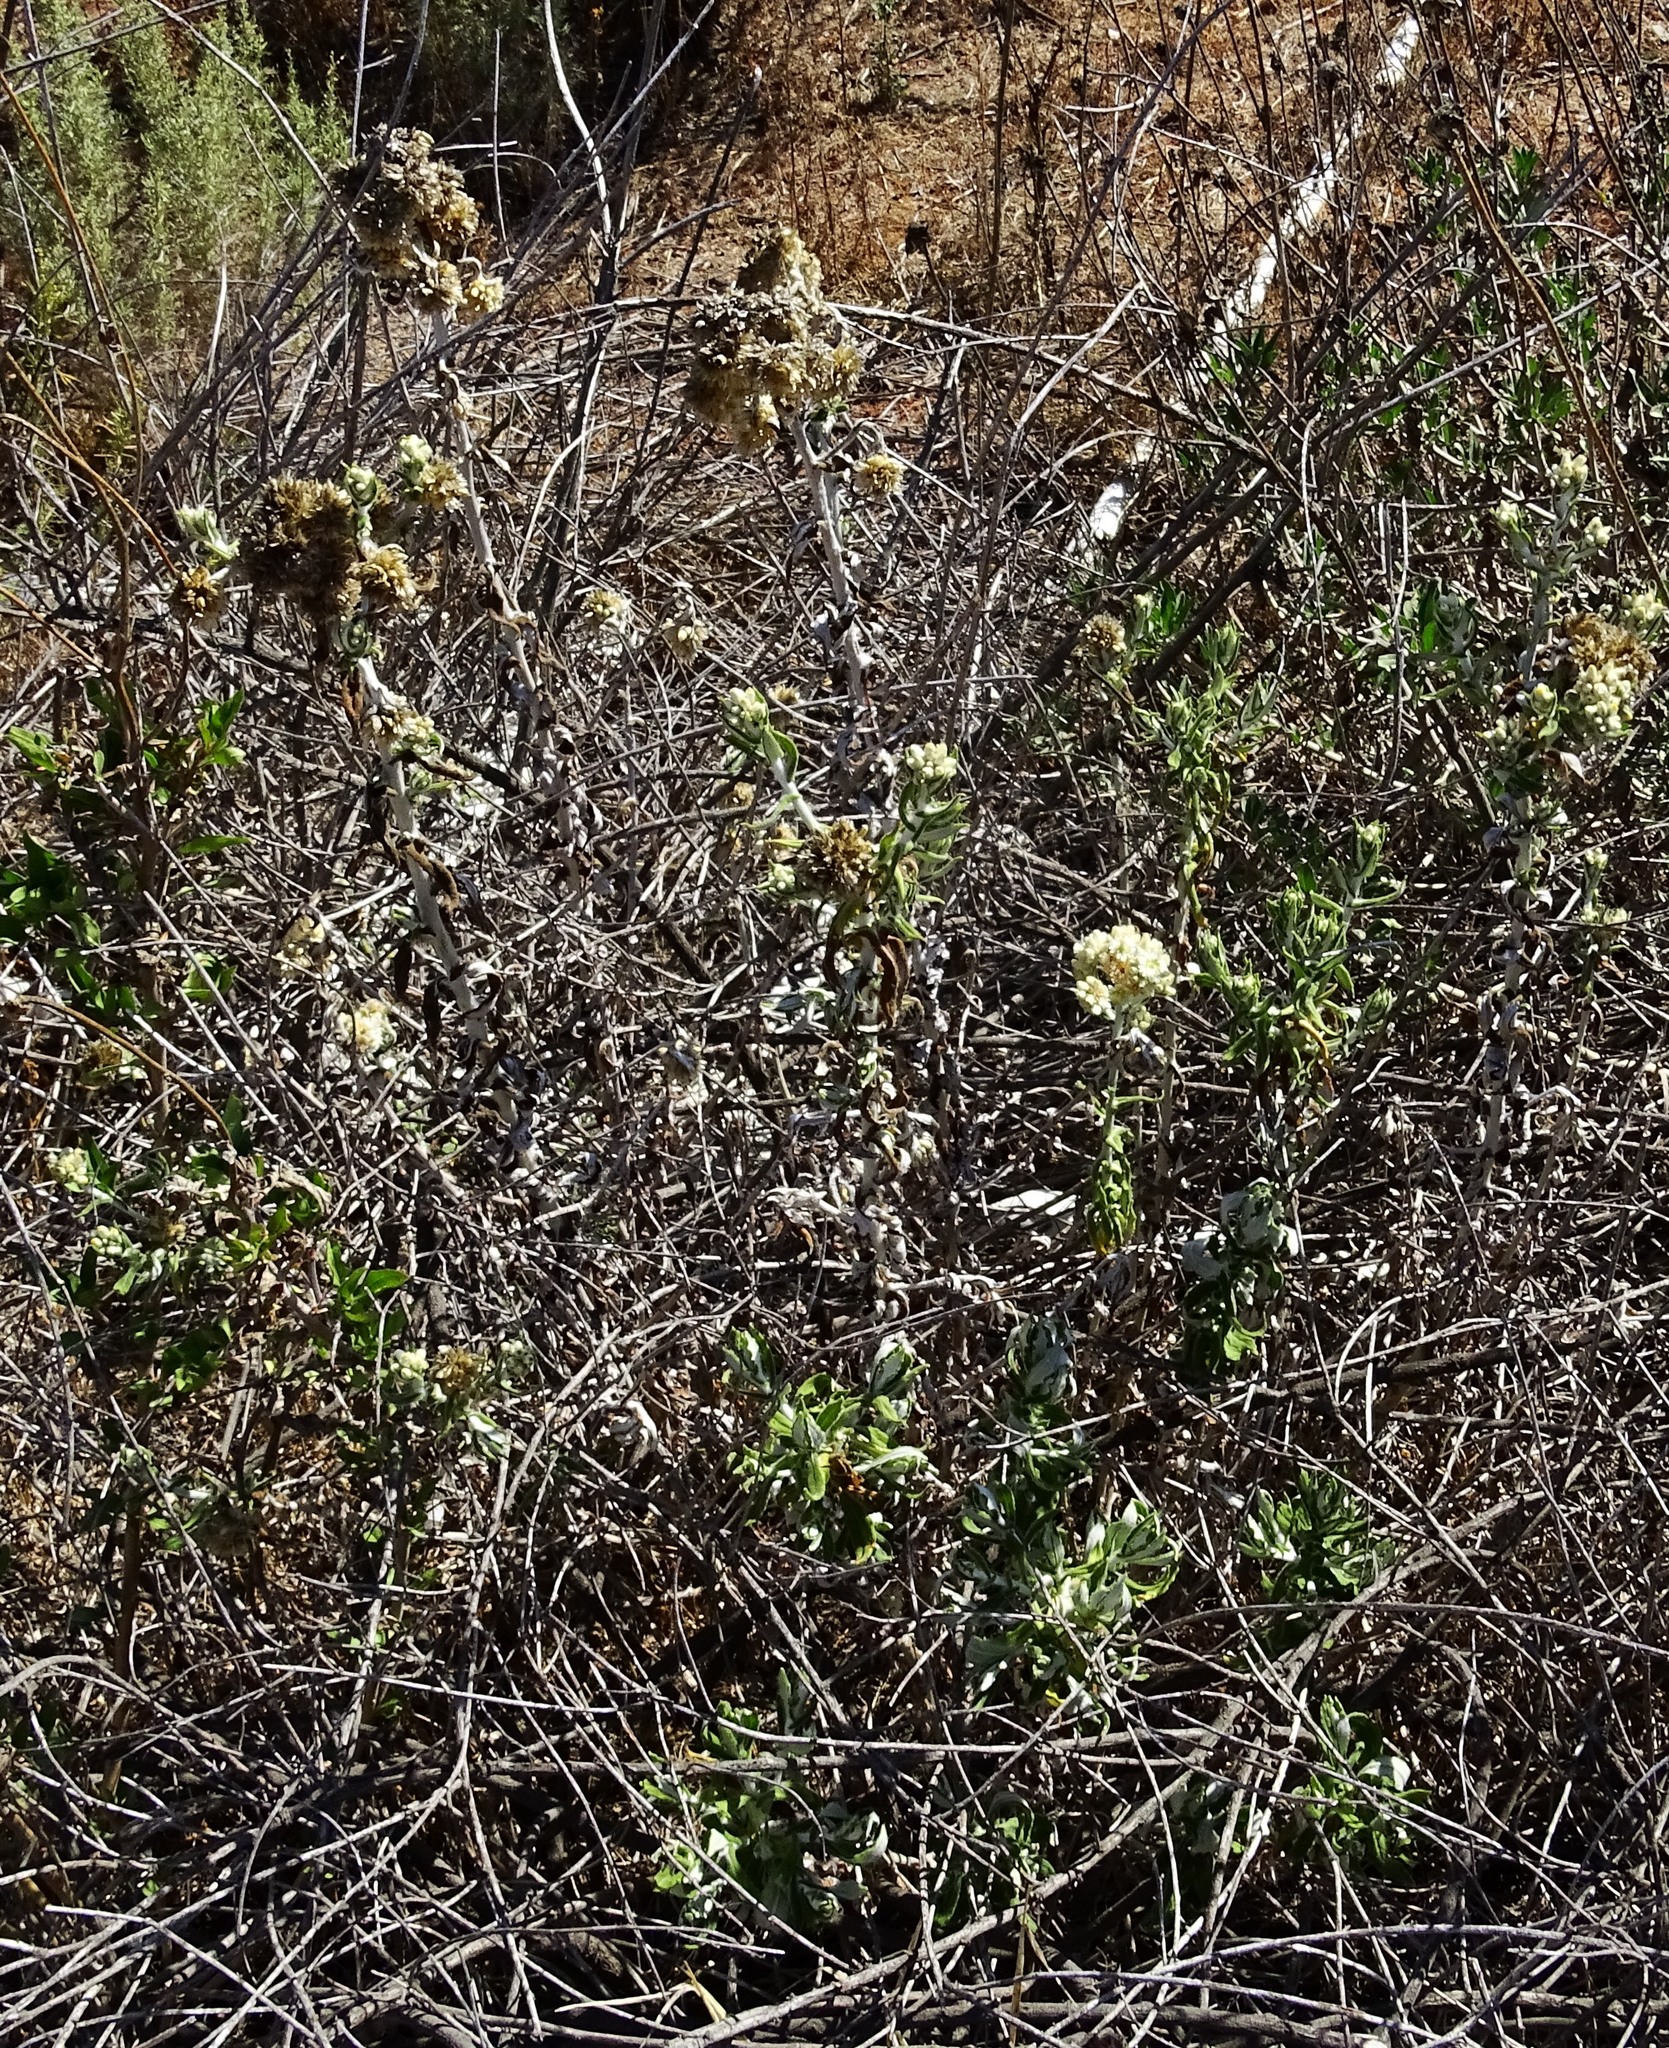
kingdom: Plantae
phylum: Tracheophyta
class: Magnoliopsida
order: Asterales
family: Asteraceae
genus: Pseudognaphalium
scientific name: Pseudognaphalium biolettii
